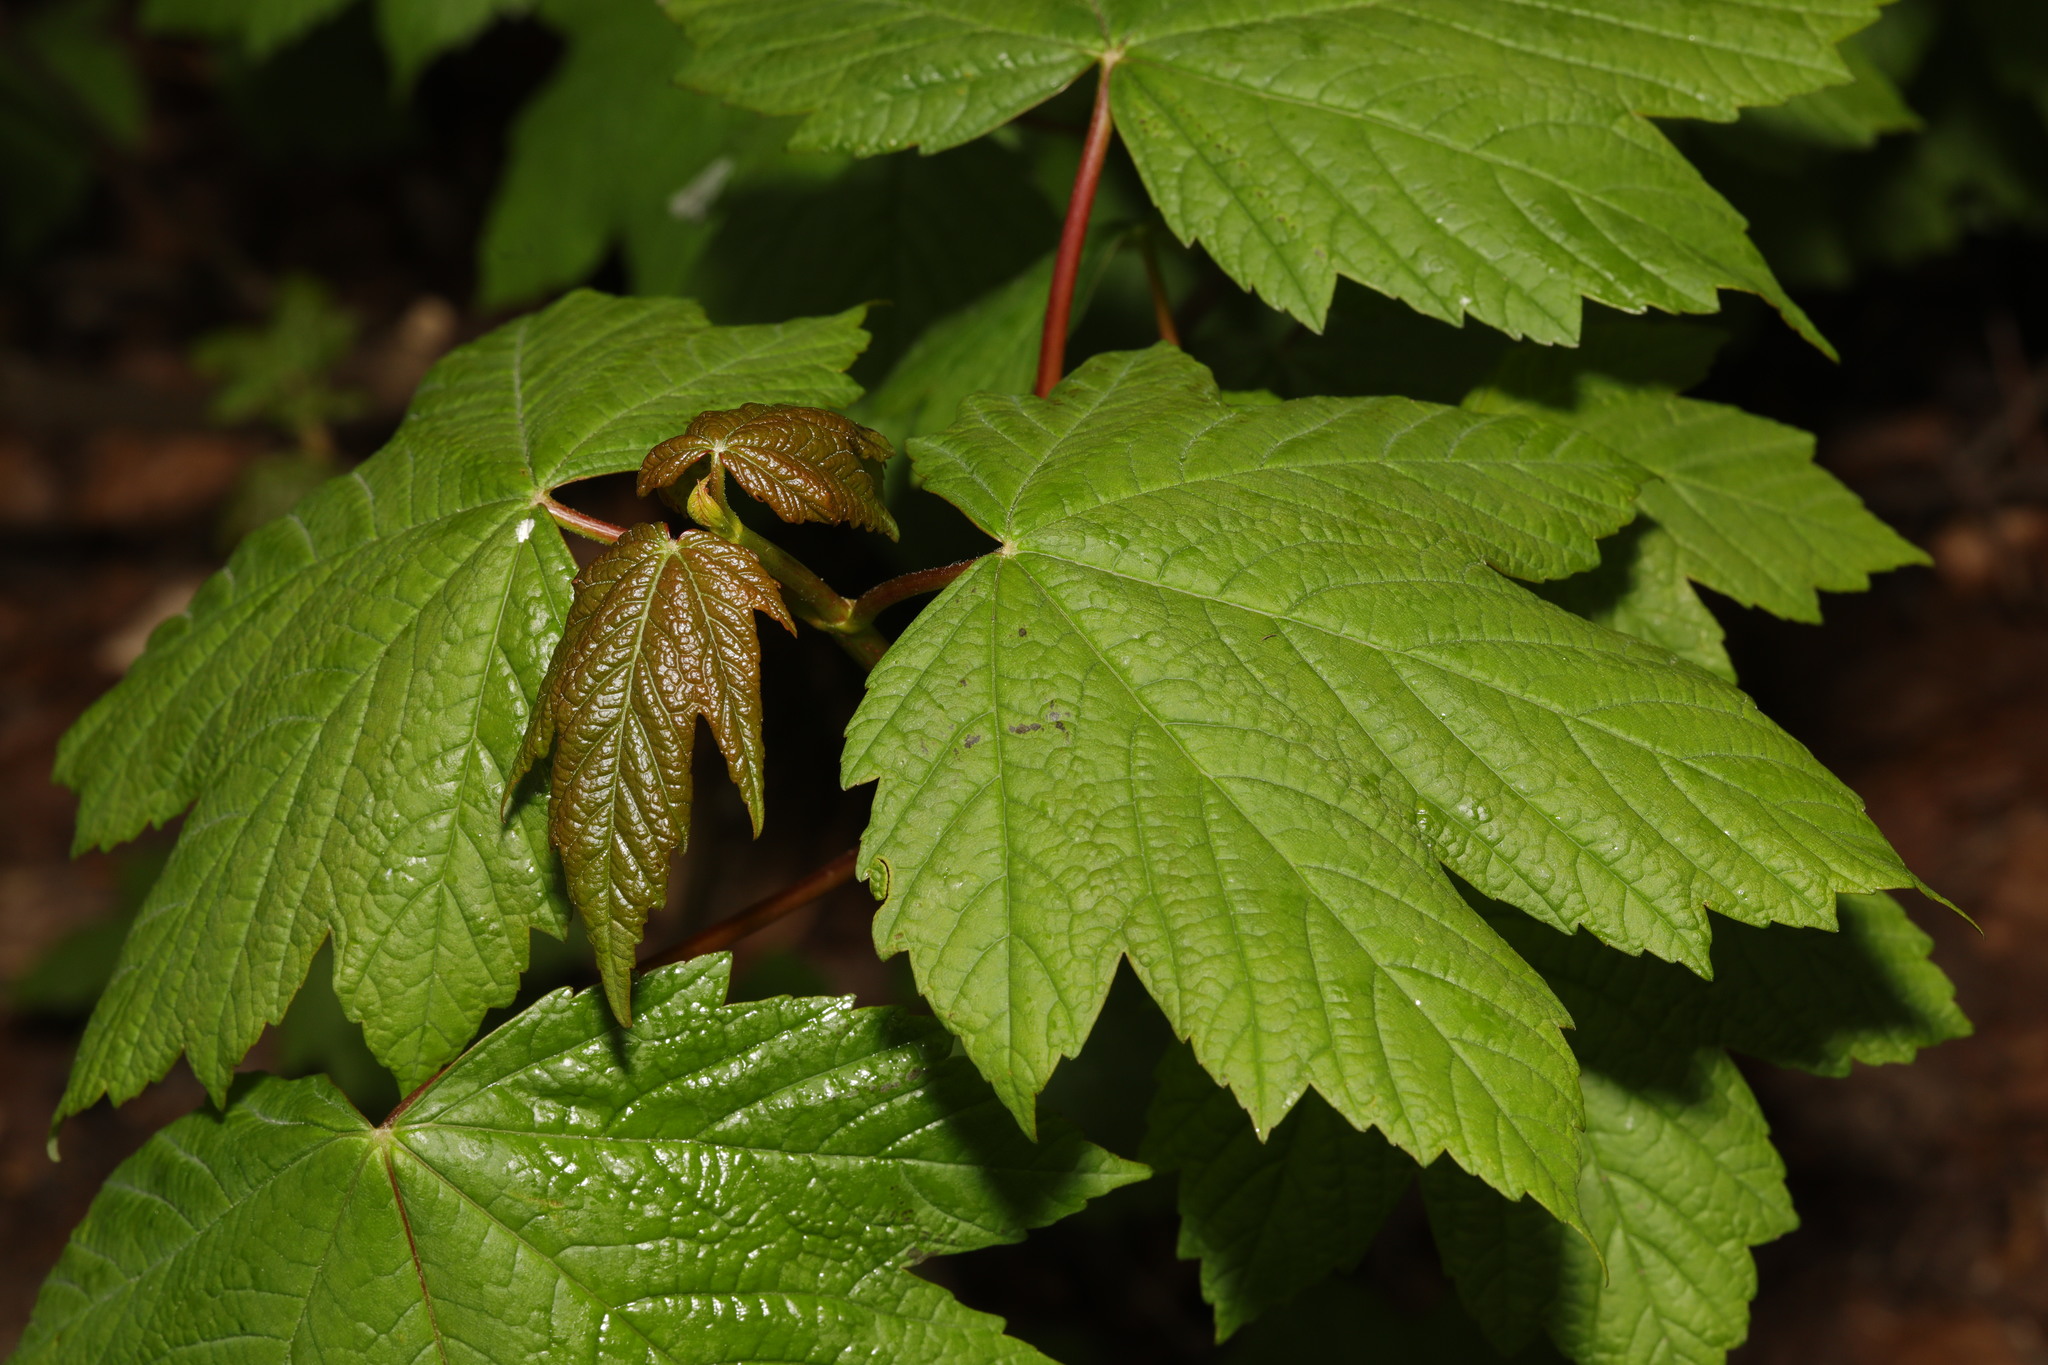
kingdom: Plantae
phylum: Tracheophyta
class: Magnoliopsida
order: Sapindales
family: Sapindaceae
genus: Acer
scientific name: Acer pseudoplatanus
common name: Sycamore
